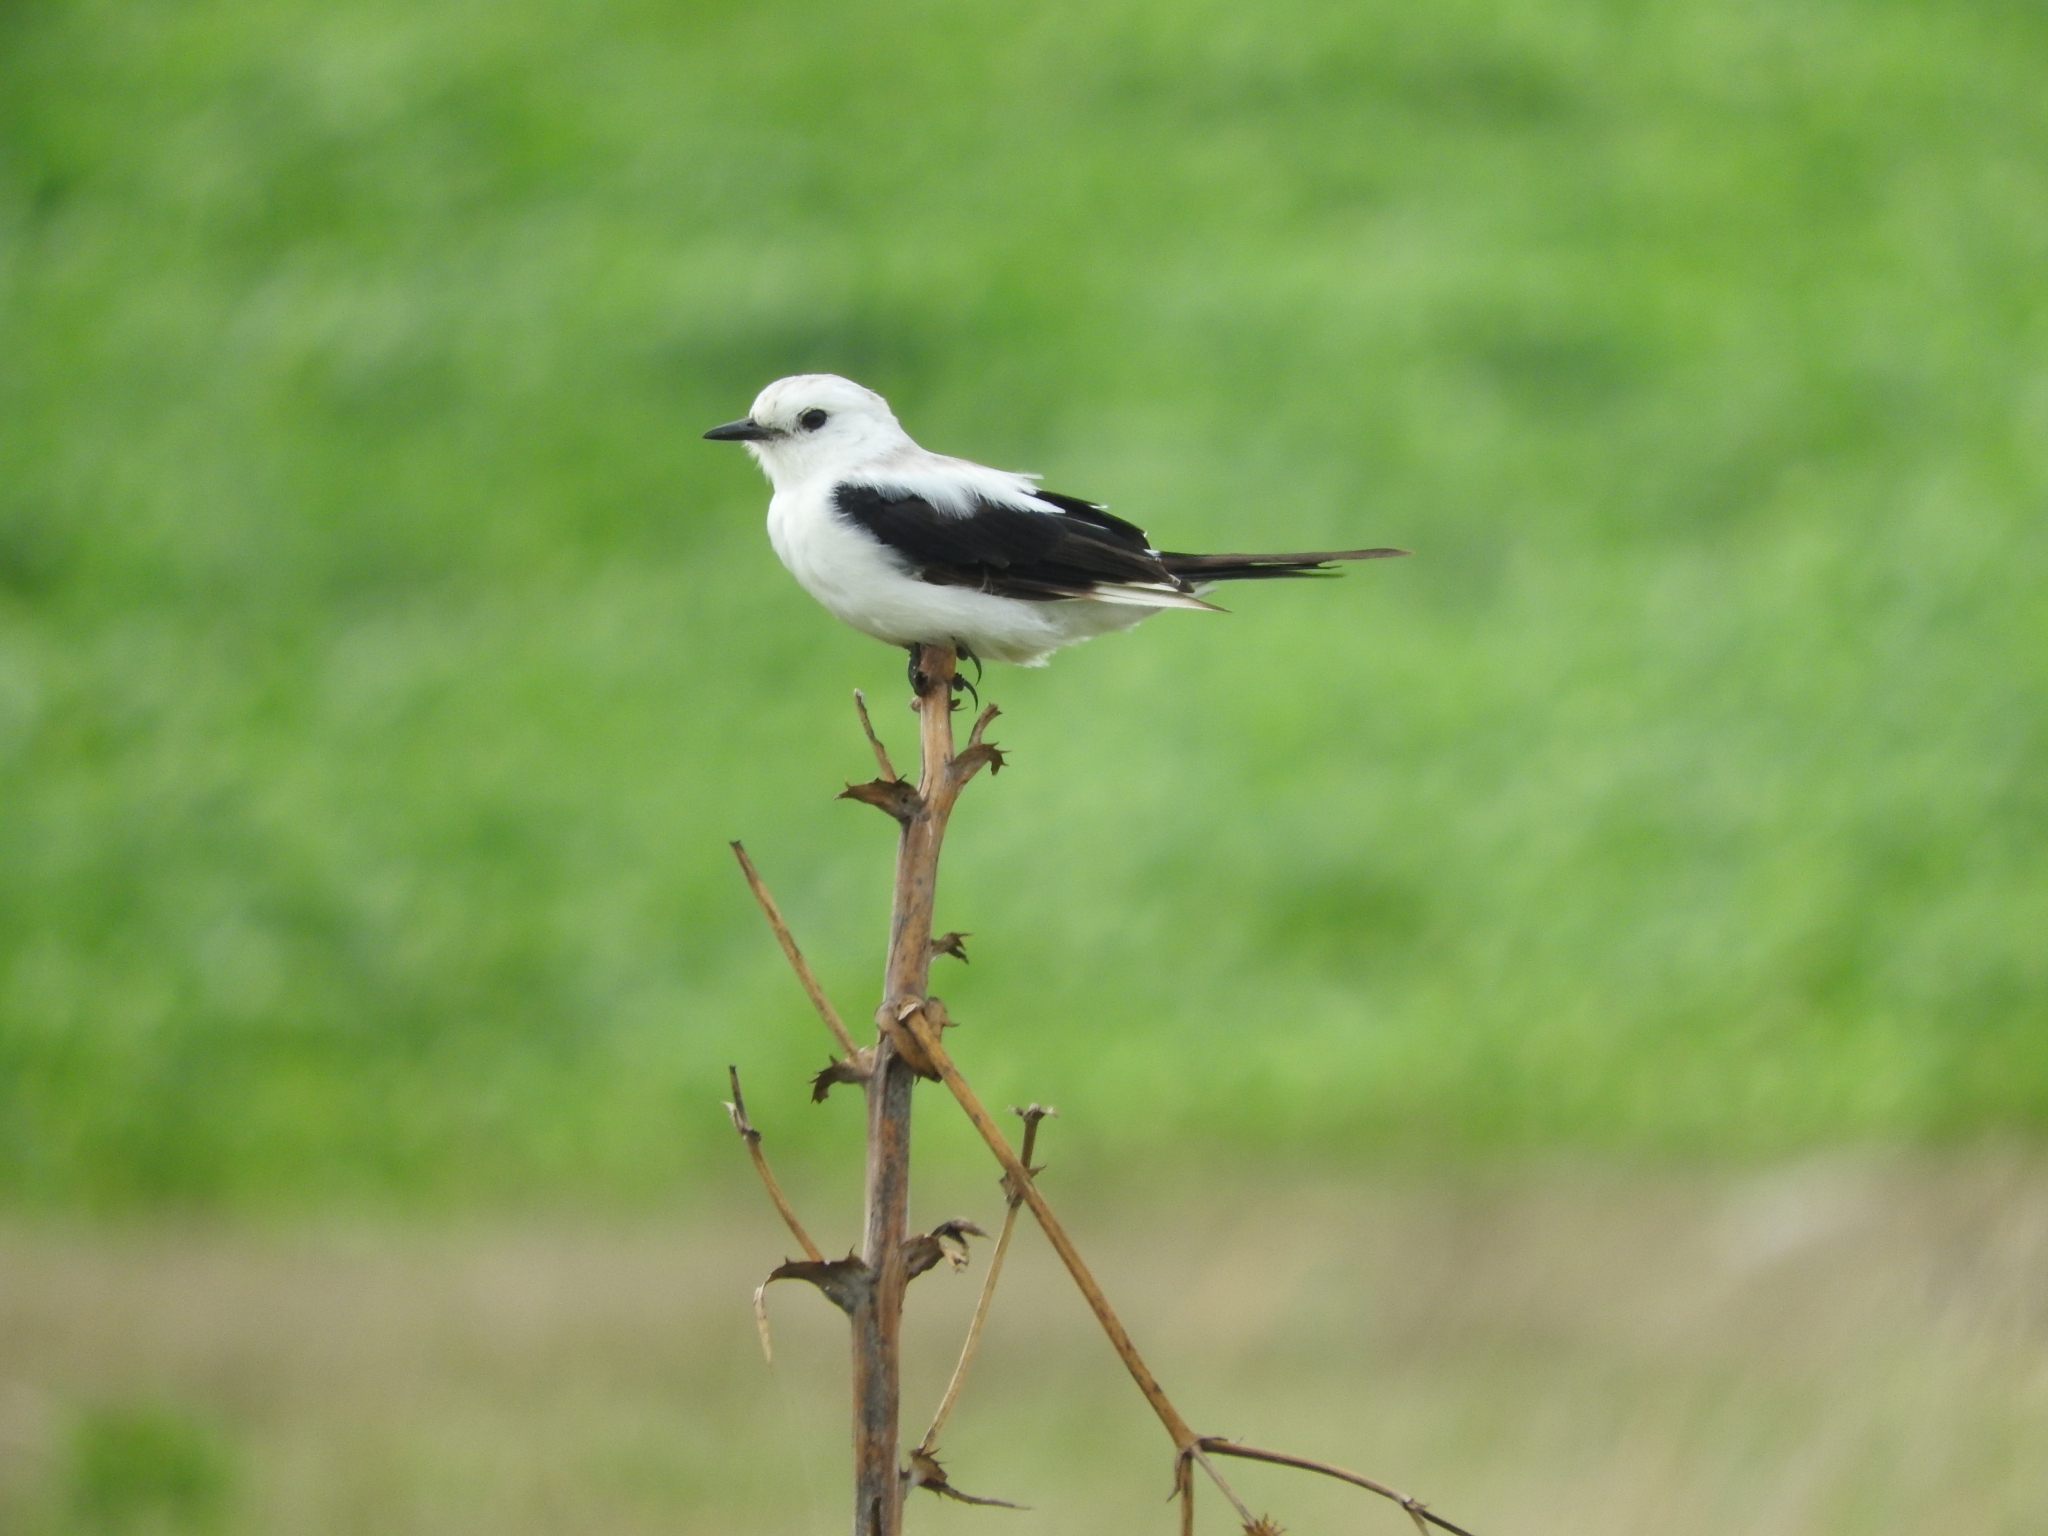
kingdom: Animalia
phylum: Chordata
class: Aves
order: Passeriformes
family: Tyrannidae
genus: Heteroxolmis
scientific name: Heteroxolmis dominicana
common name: Black-and-white monjita
